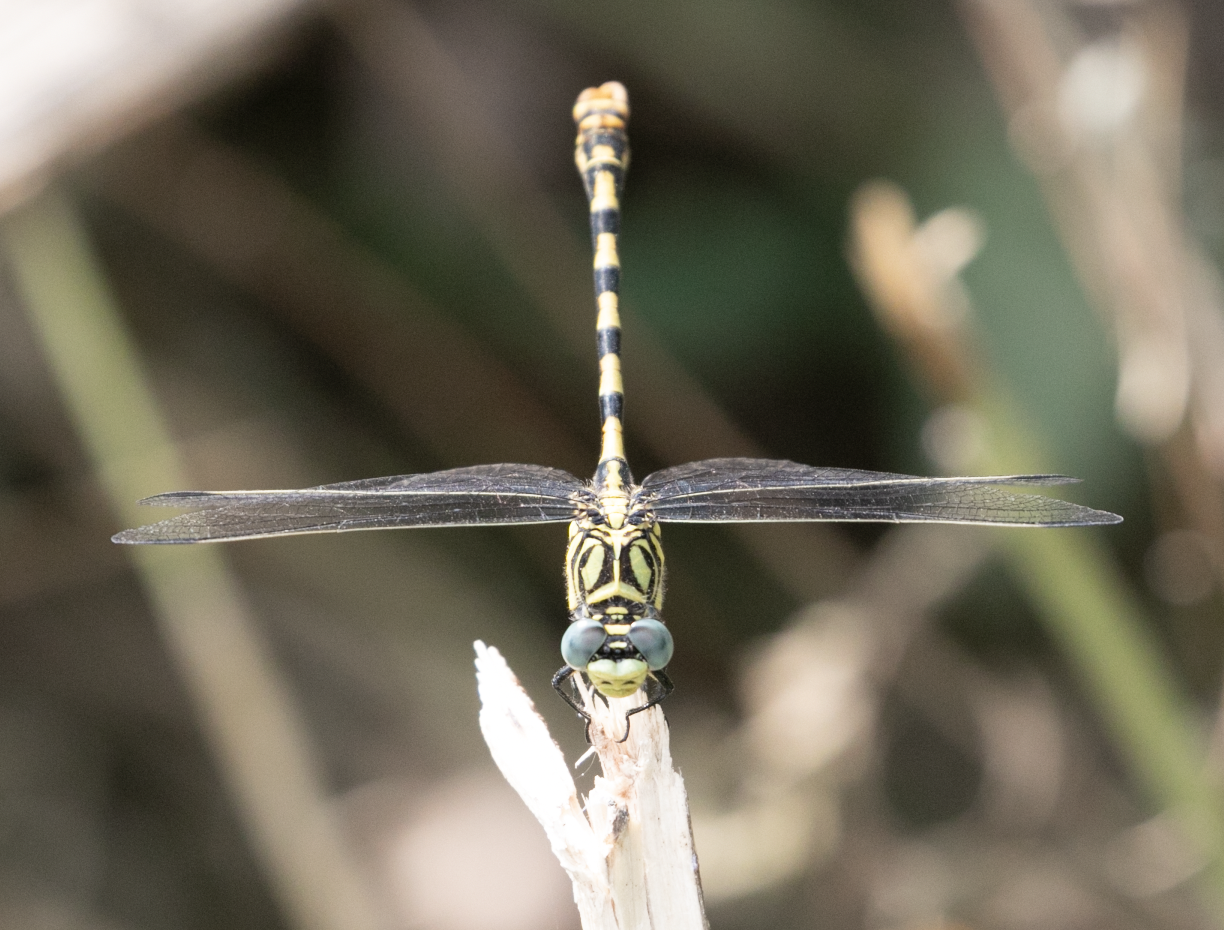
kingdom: Animalia
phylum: Arthropoda
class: Insecta
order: Odonata
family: Gomphidae
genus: Onychogomphus
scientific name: Onychogomphus forcipatus
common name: Small pincertail
